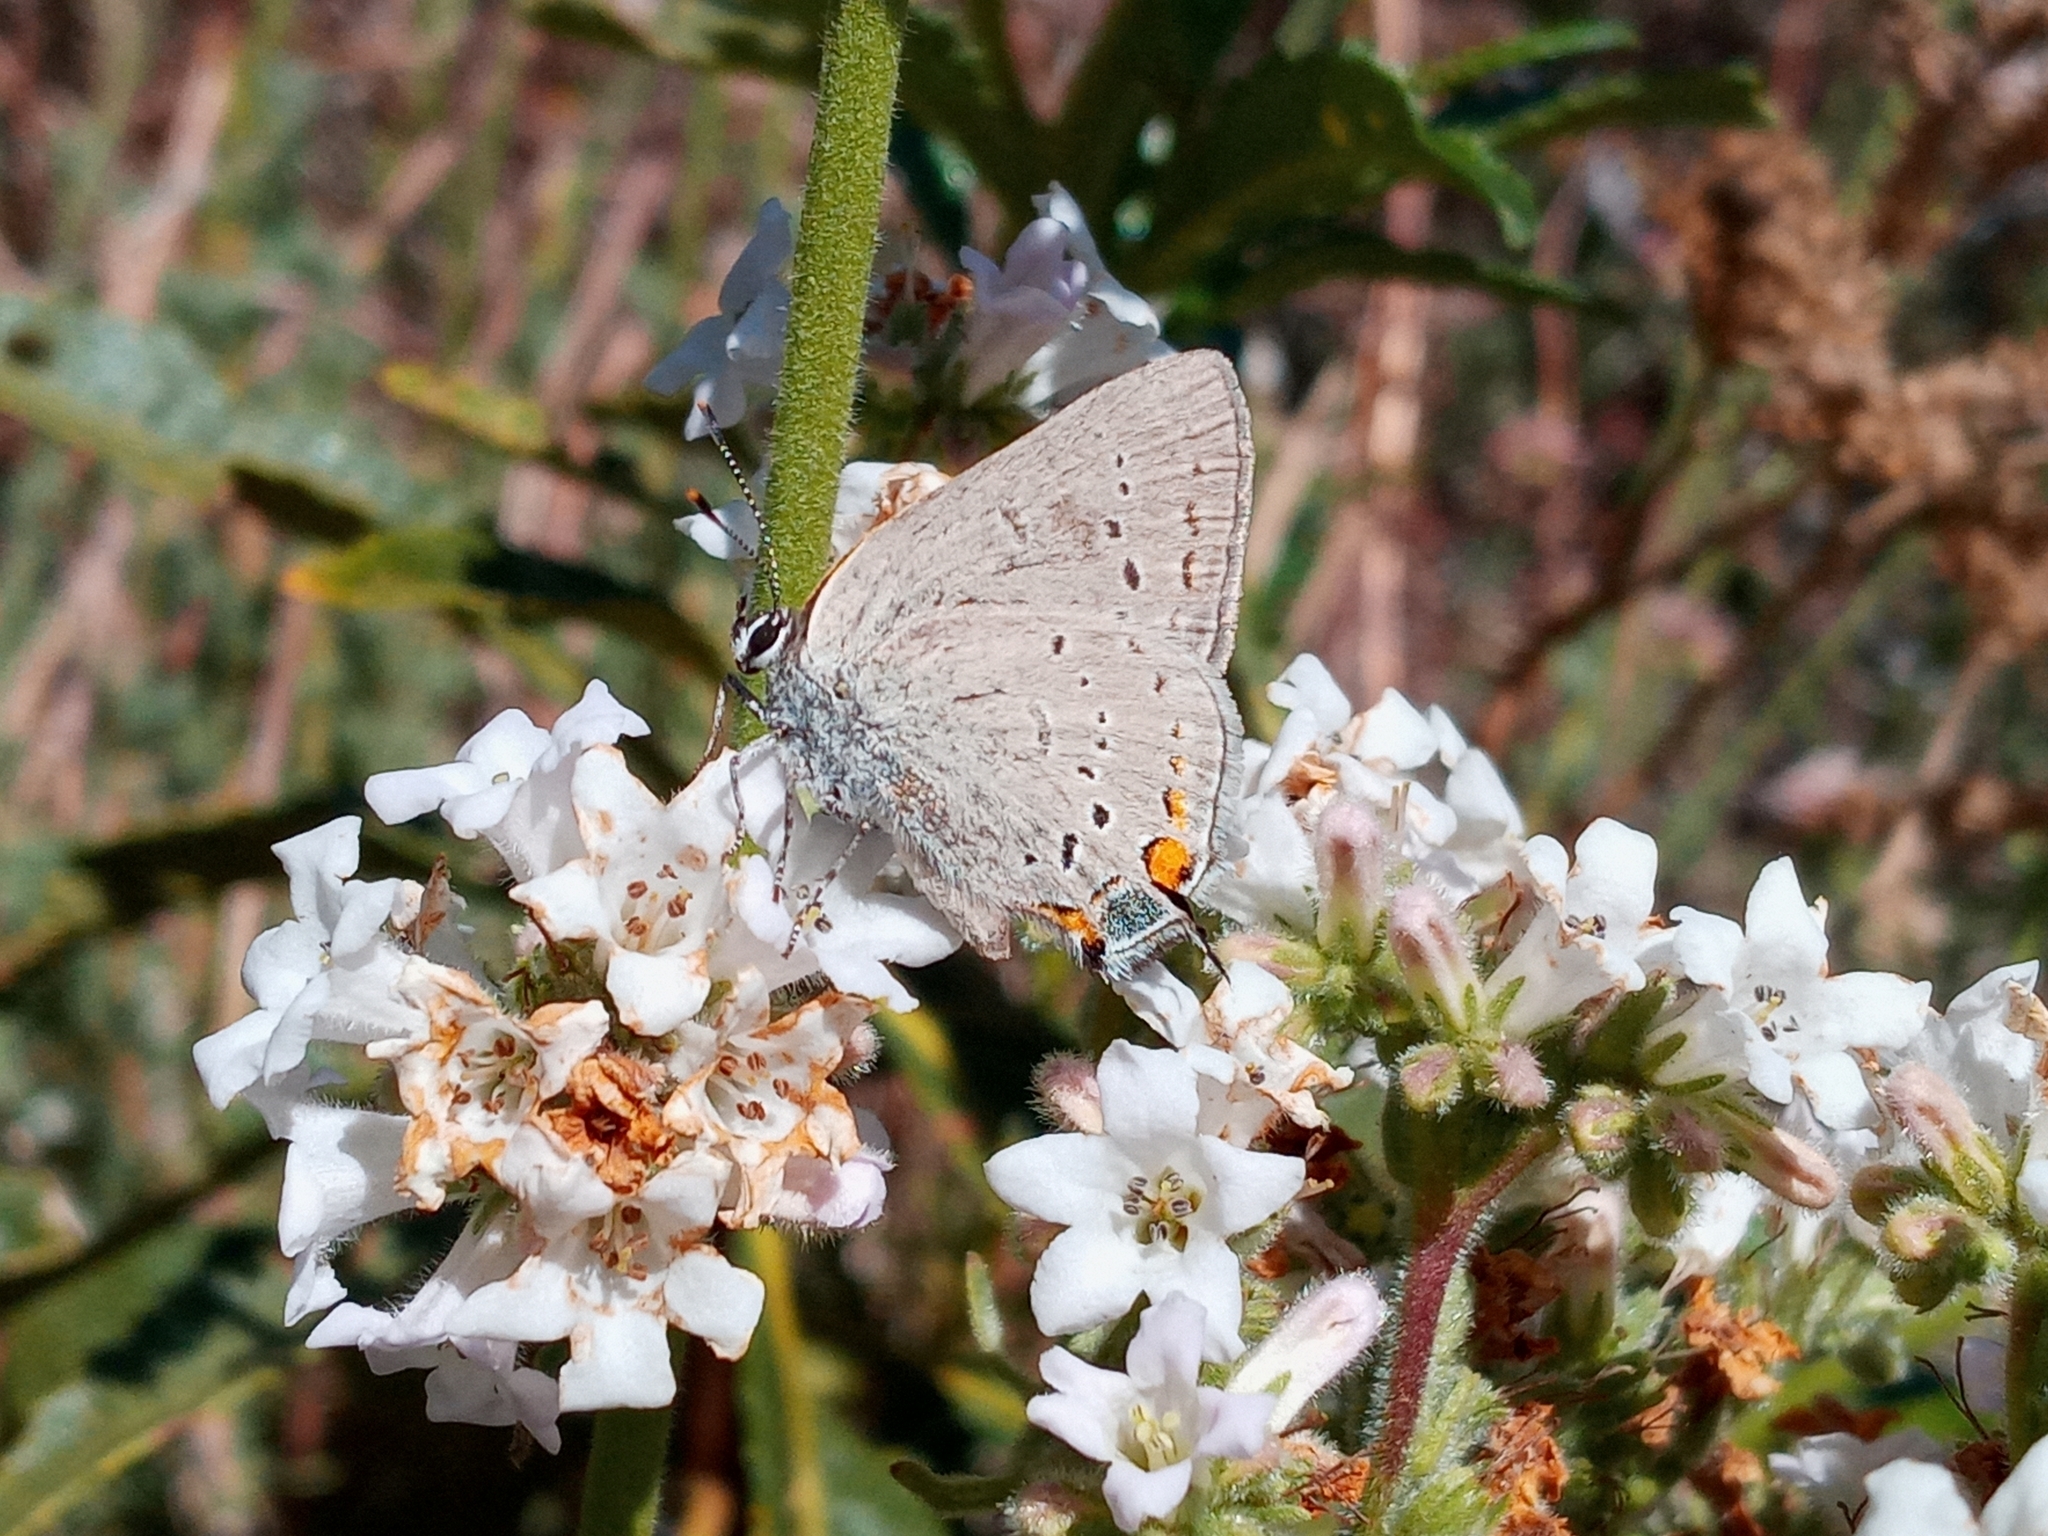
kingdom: Animalia
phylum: Arthropoda
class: Insecta
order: Lepidoptera
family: Lycaenidae
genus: Strymon
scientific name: Strymon acadica
